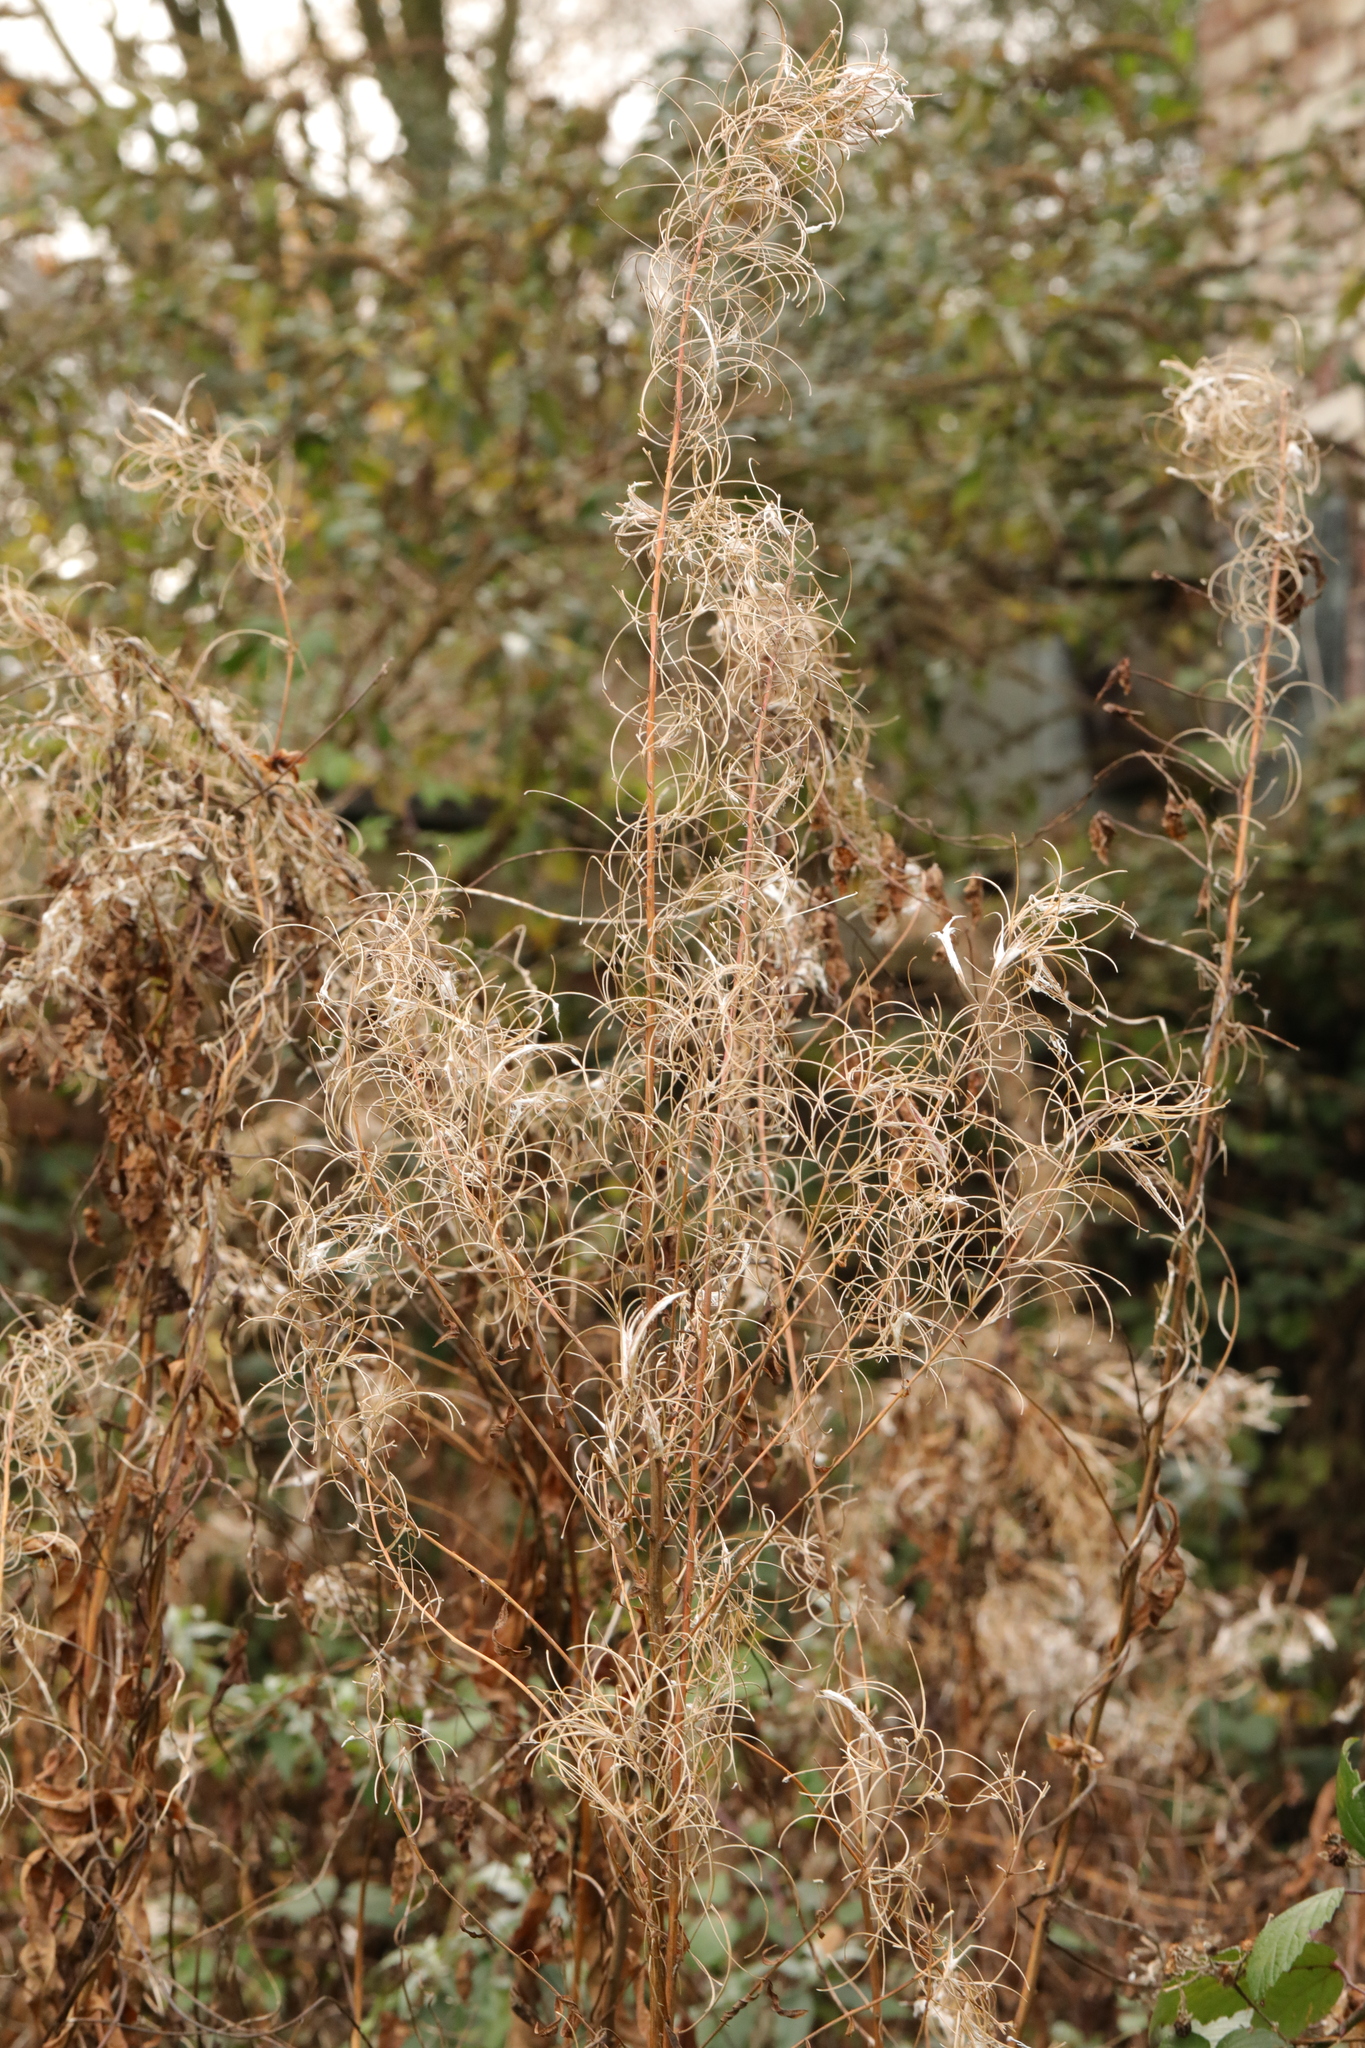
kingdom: Plantae
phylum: Tracheophyta
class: Magnoliopsida
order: Myrtales
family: Onagraceae
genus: Chamaenerion
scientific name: Chamaenerion angustifolium
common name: Fireweed
